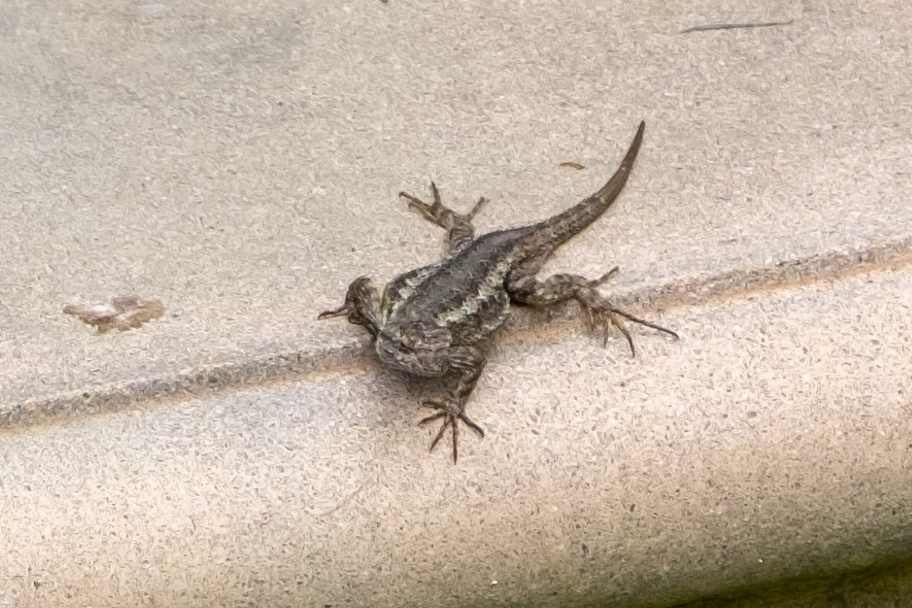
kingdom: Animalia
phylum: Chordata
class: Squamata
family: Phrynosomatidae
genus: Sceloporus
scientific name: Sceloporus occidentalis
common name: Western fence lizard
